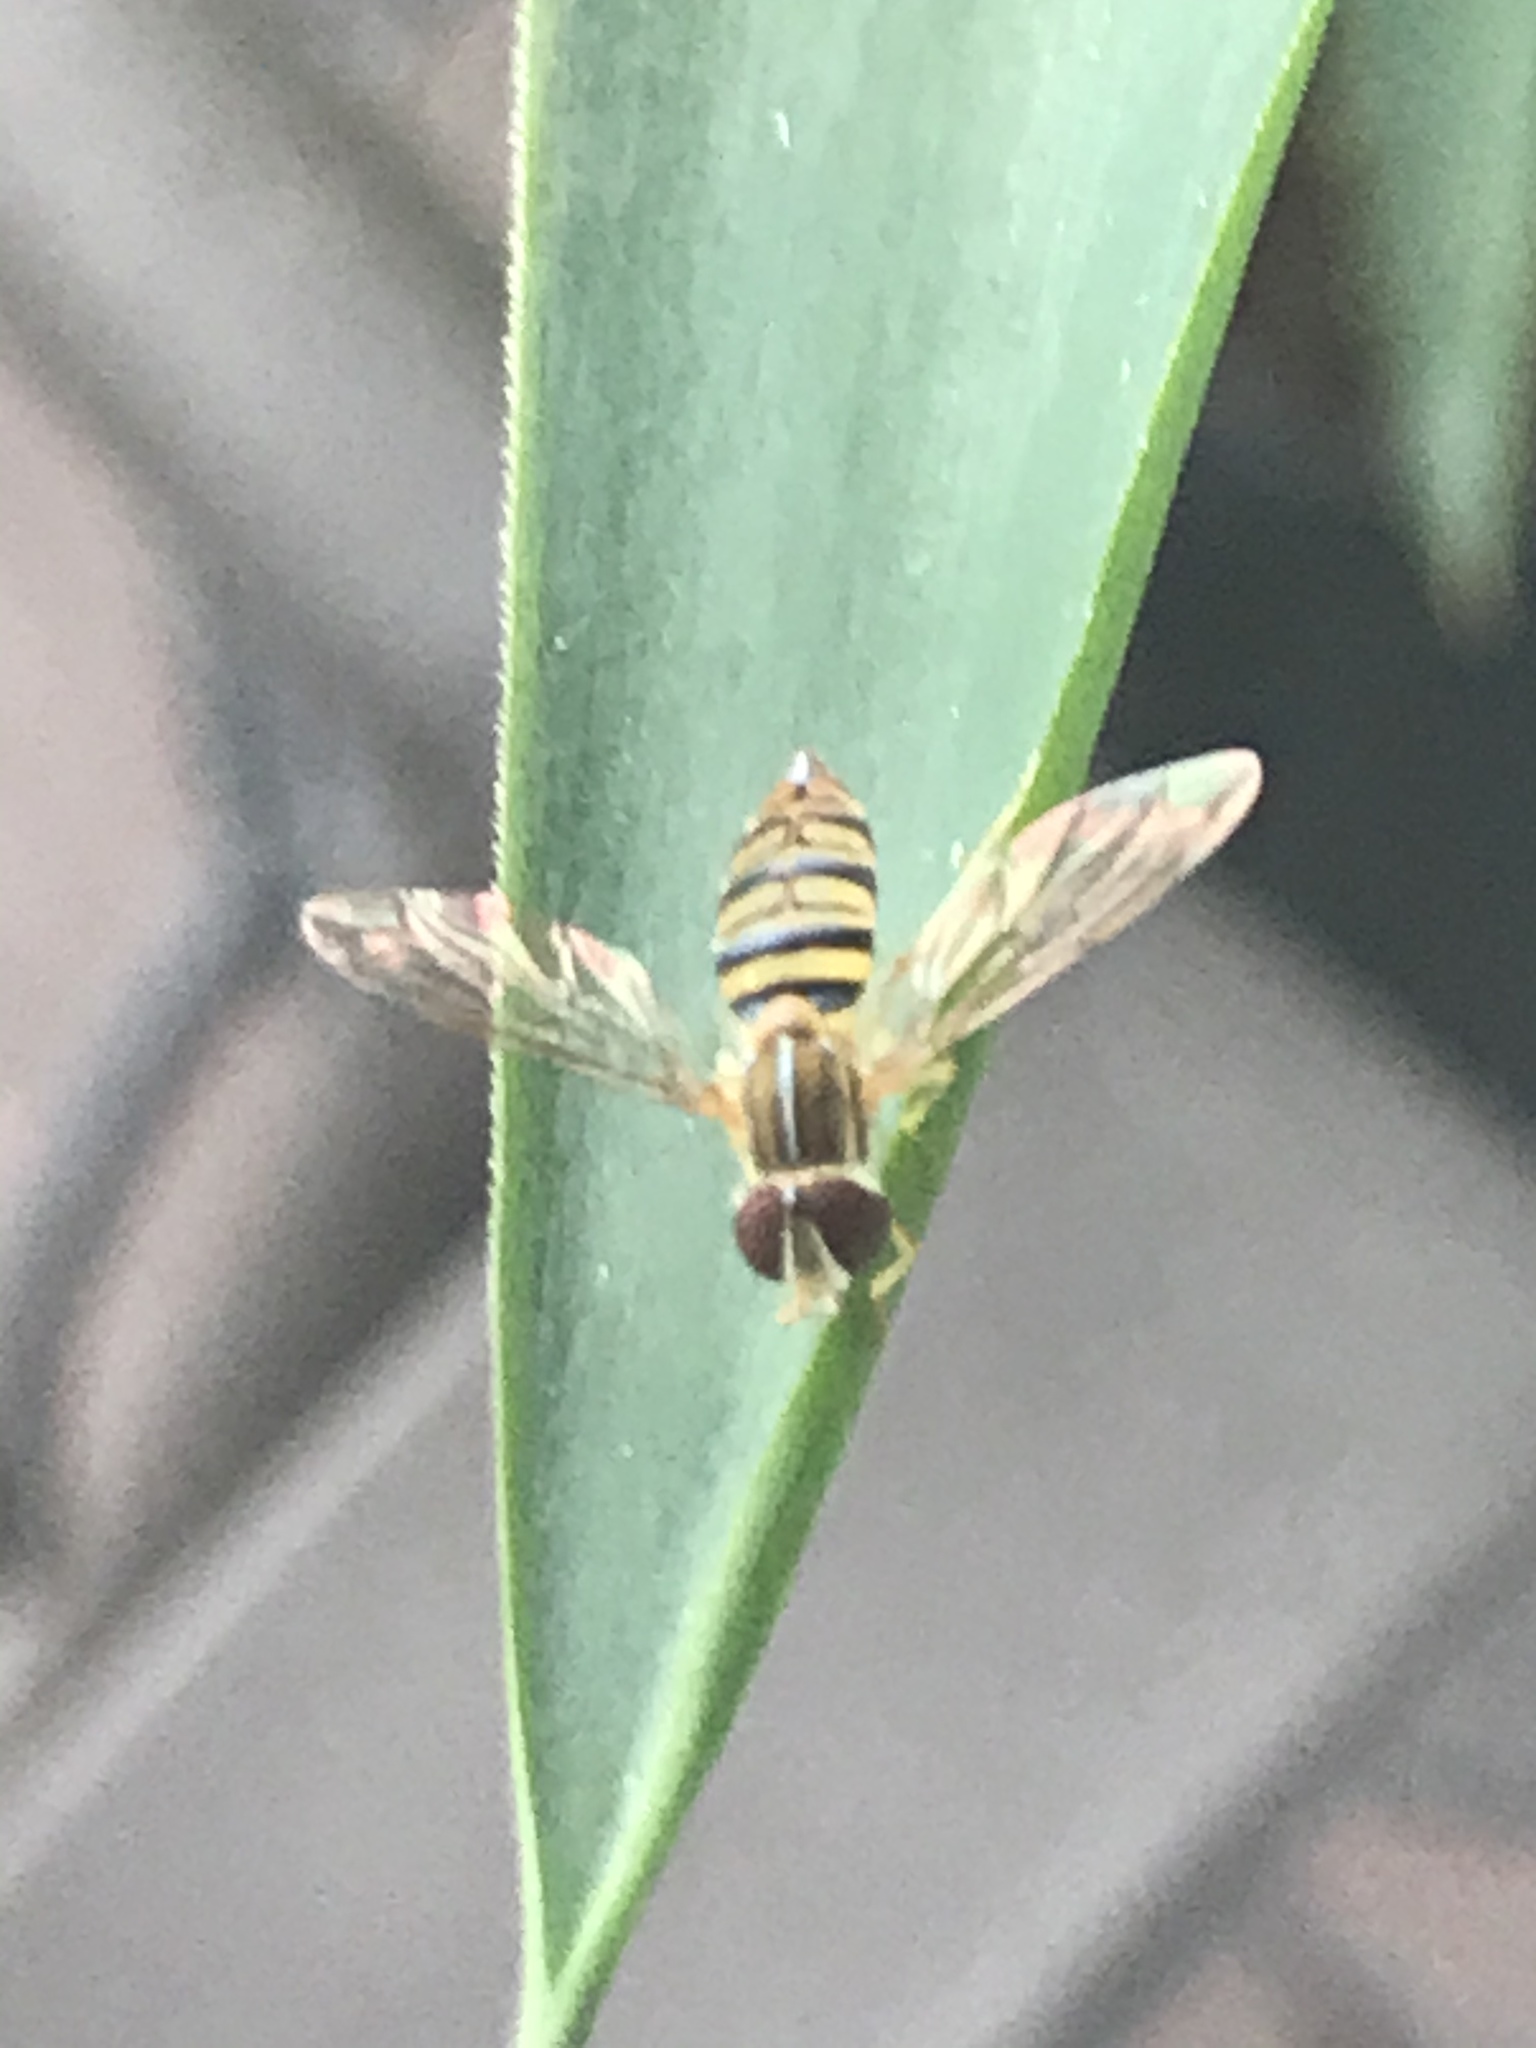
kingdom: Animalia
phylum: Arthropoda
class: Insecta
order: Diptera
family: Syrphidae
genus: Toxomerus
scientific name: Toxomerus politus
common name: Maize calligrapher
